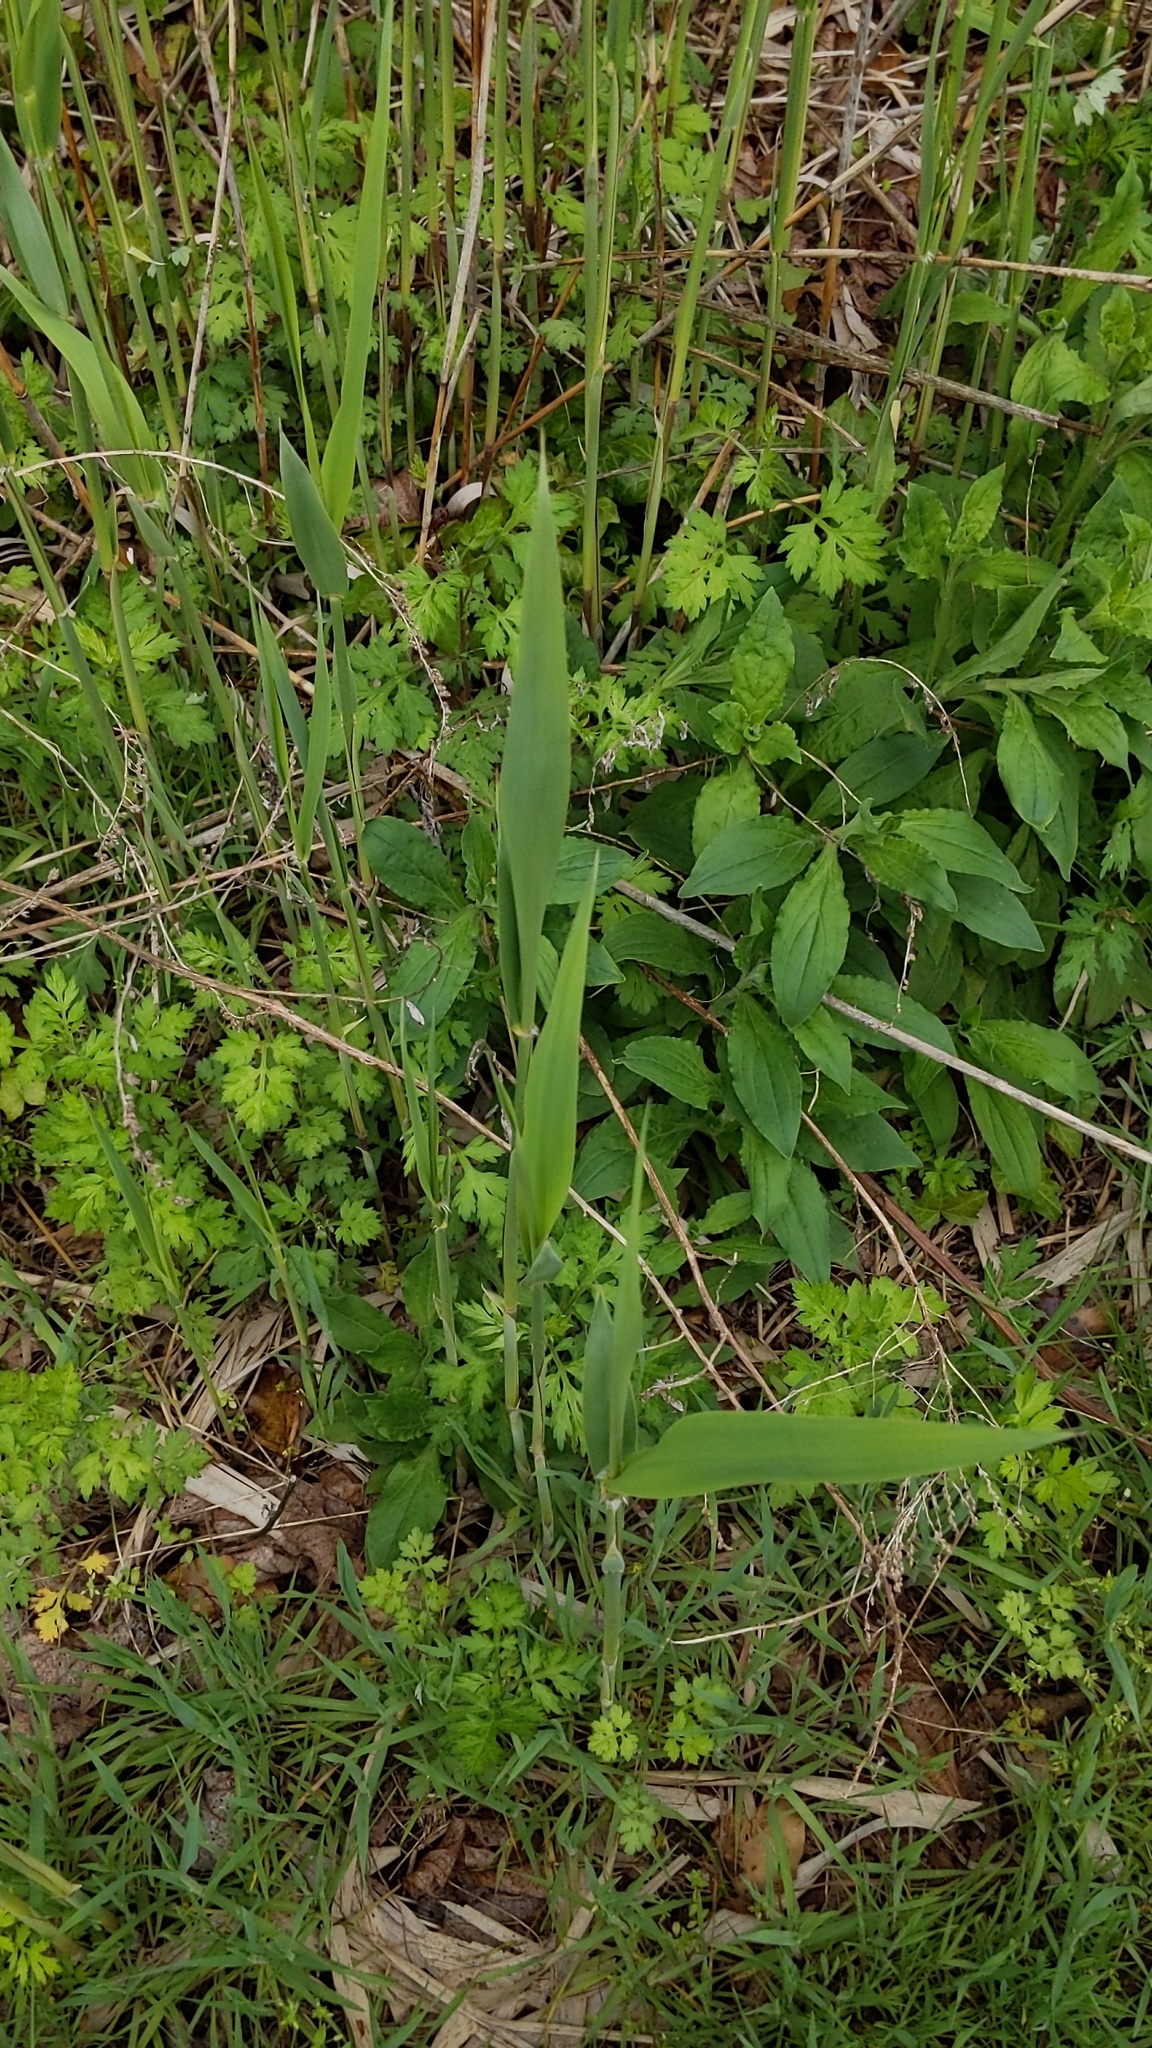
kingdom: Plantae
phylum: Tracheophyta
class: Liliopsida
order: Poales
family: Poaceae
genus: Phragmites
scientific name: Phragmites australis
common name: Common reed
